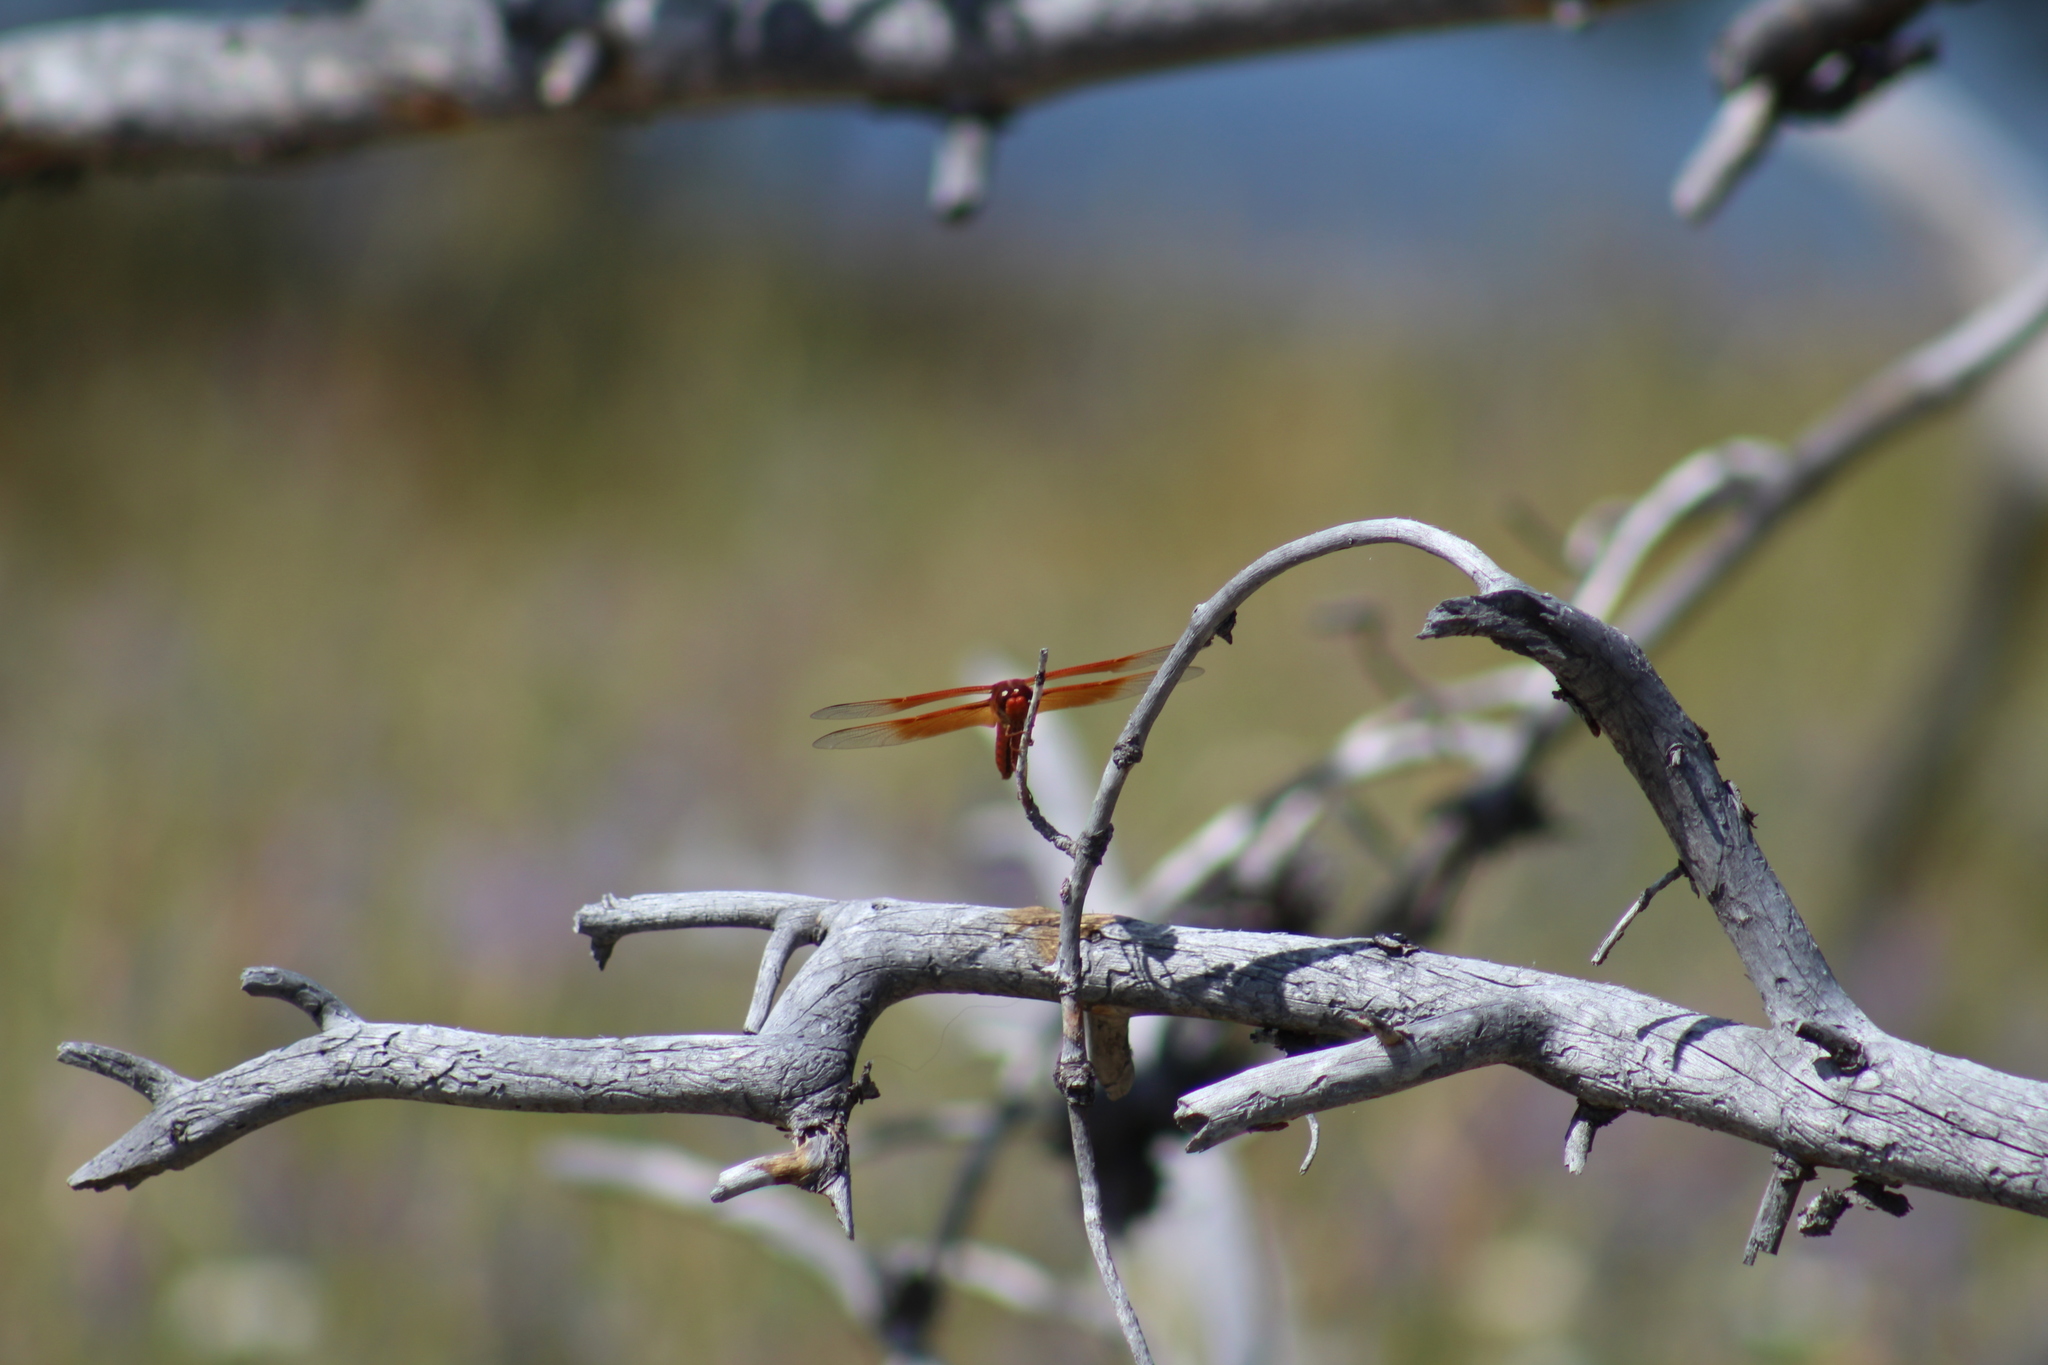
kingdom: Animalia
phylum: Arthropoda
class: Insecta
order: Odonata
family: Libellulidae
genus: Libellula
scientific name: Libellula saturata
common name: Flame skimmer
